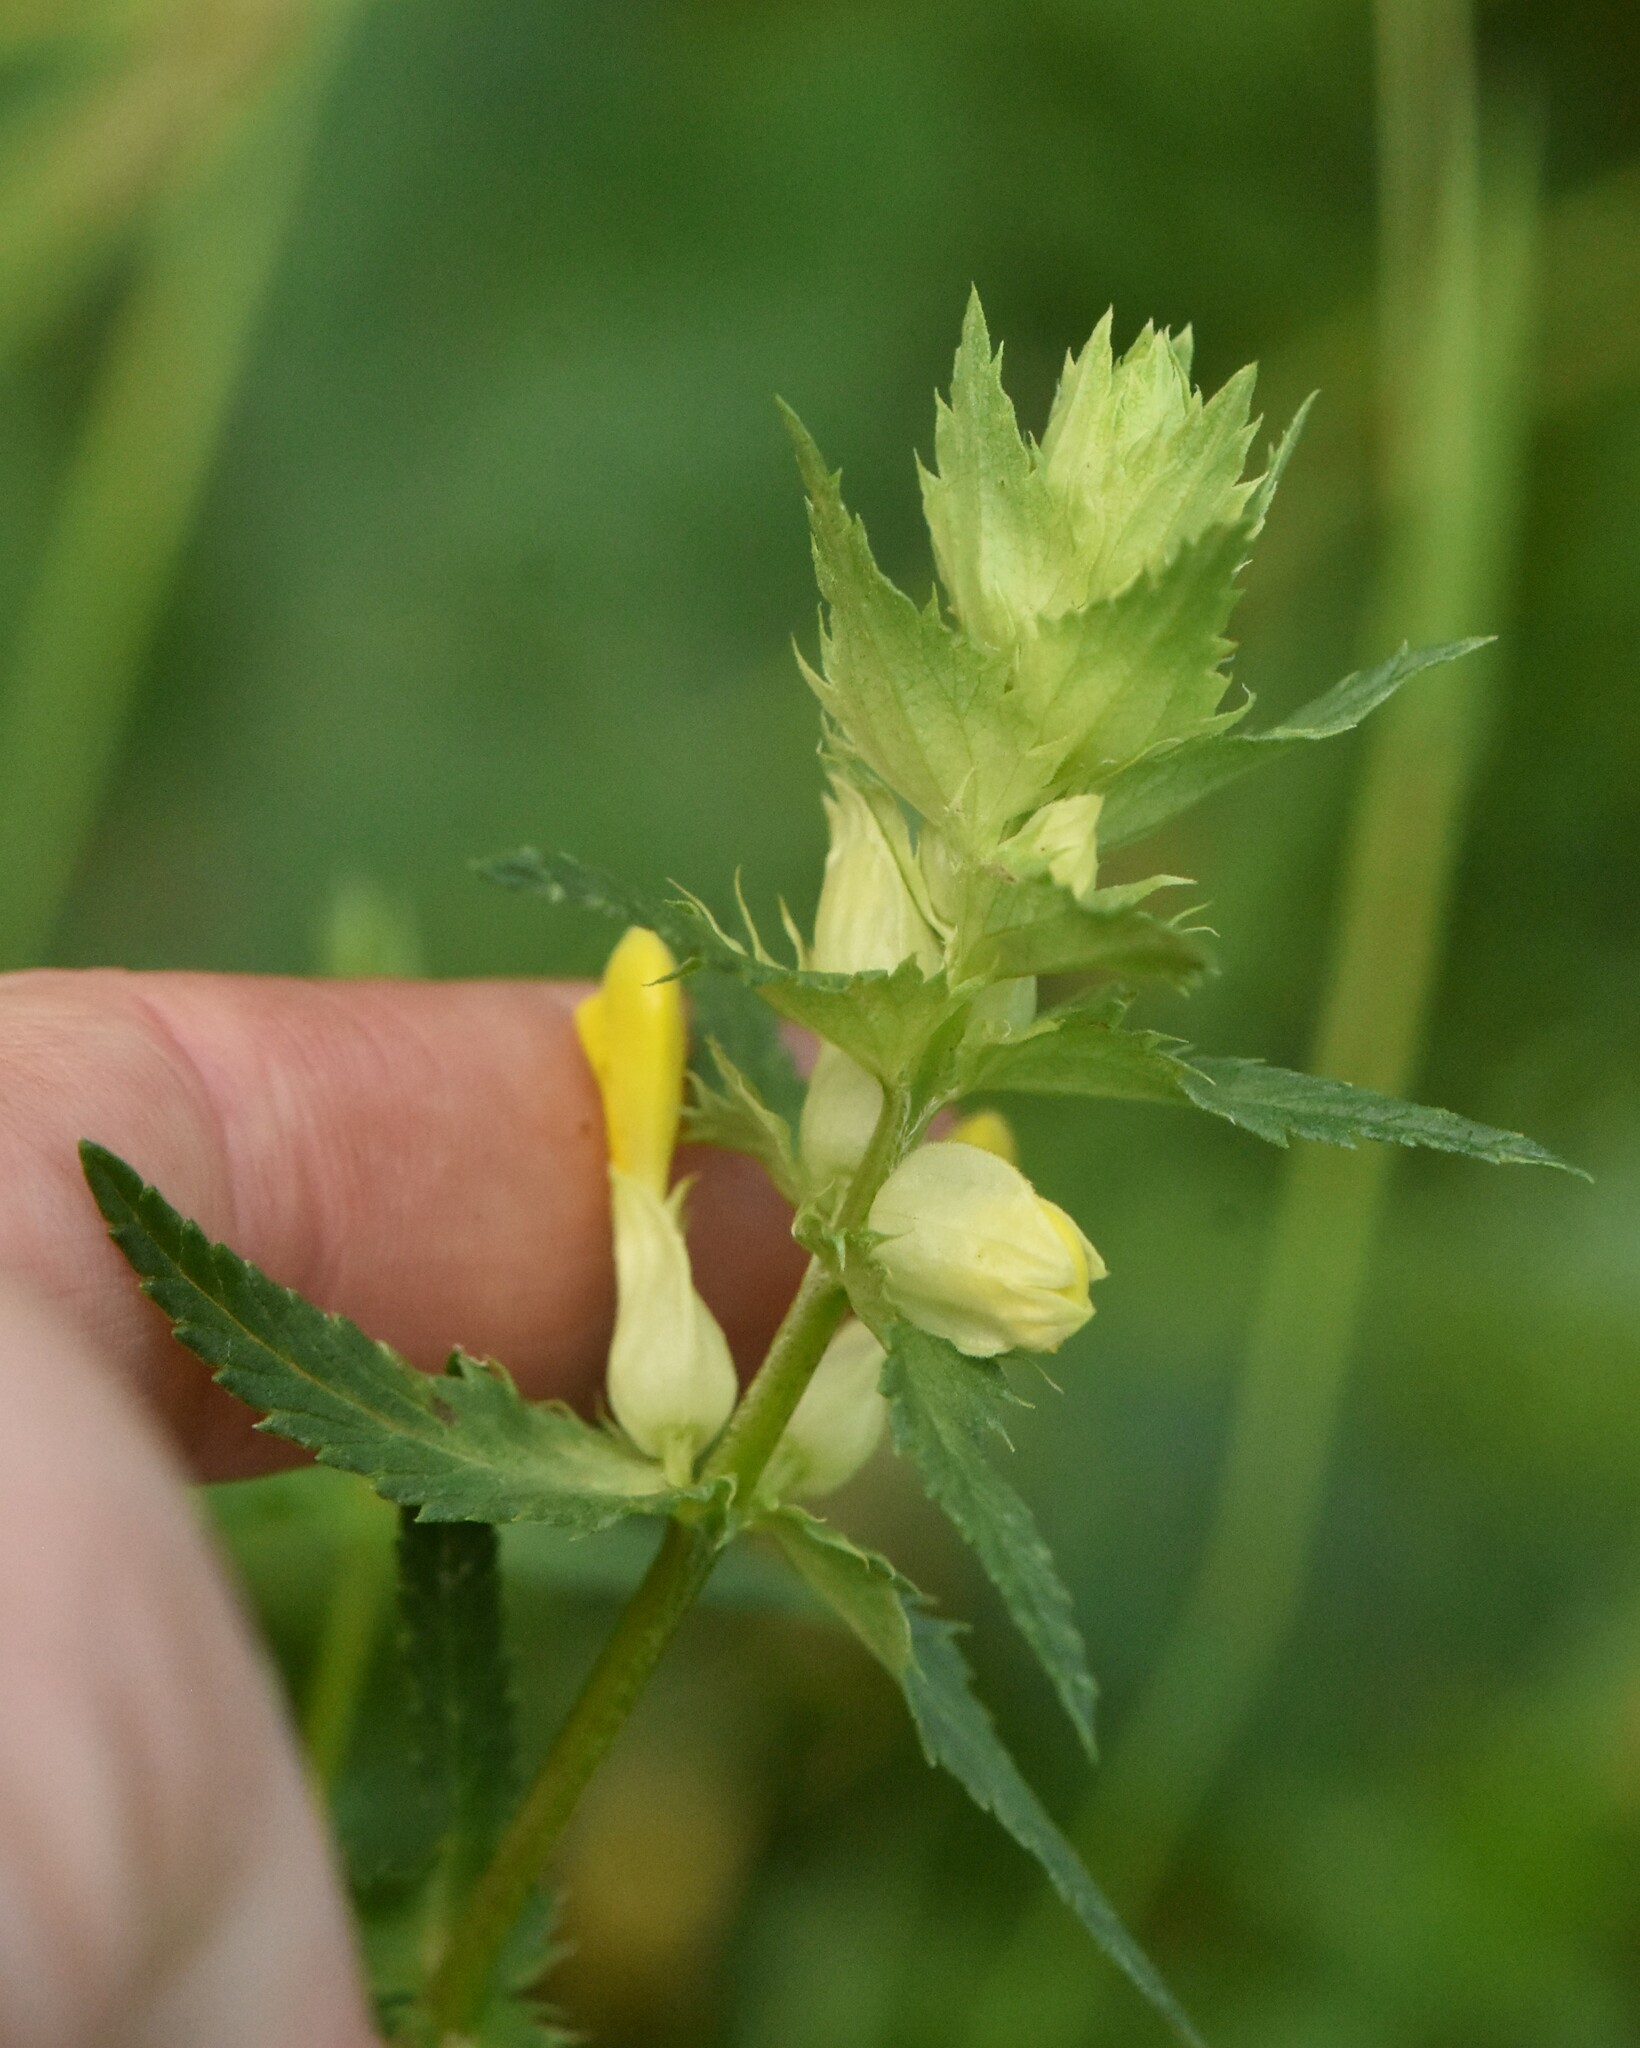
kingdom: Plantae
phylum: Tracheophyta
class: Magnoliopsida
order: Lamiales
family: Orobanchaceae
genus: Rhinanthus
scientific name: Rhinanthus serotinus
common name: Late-flowering yellow rattle
